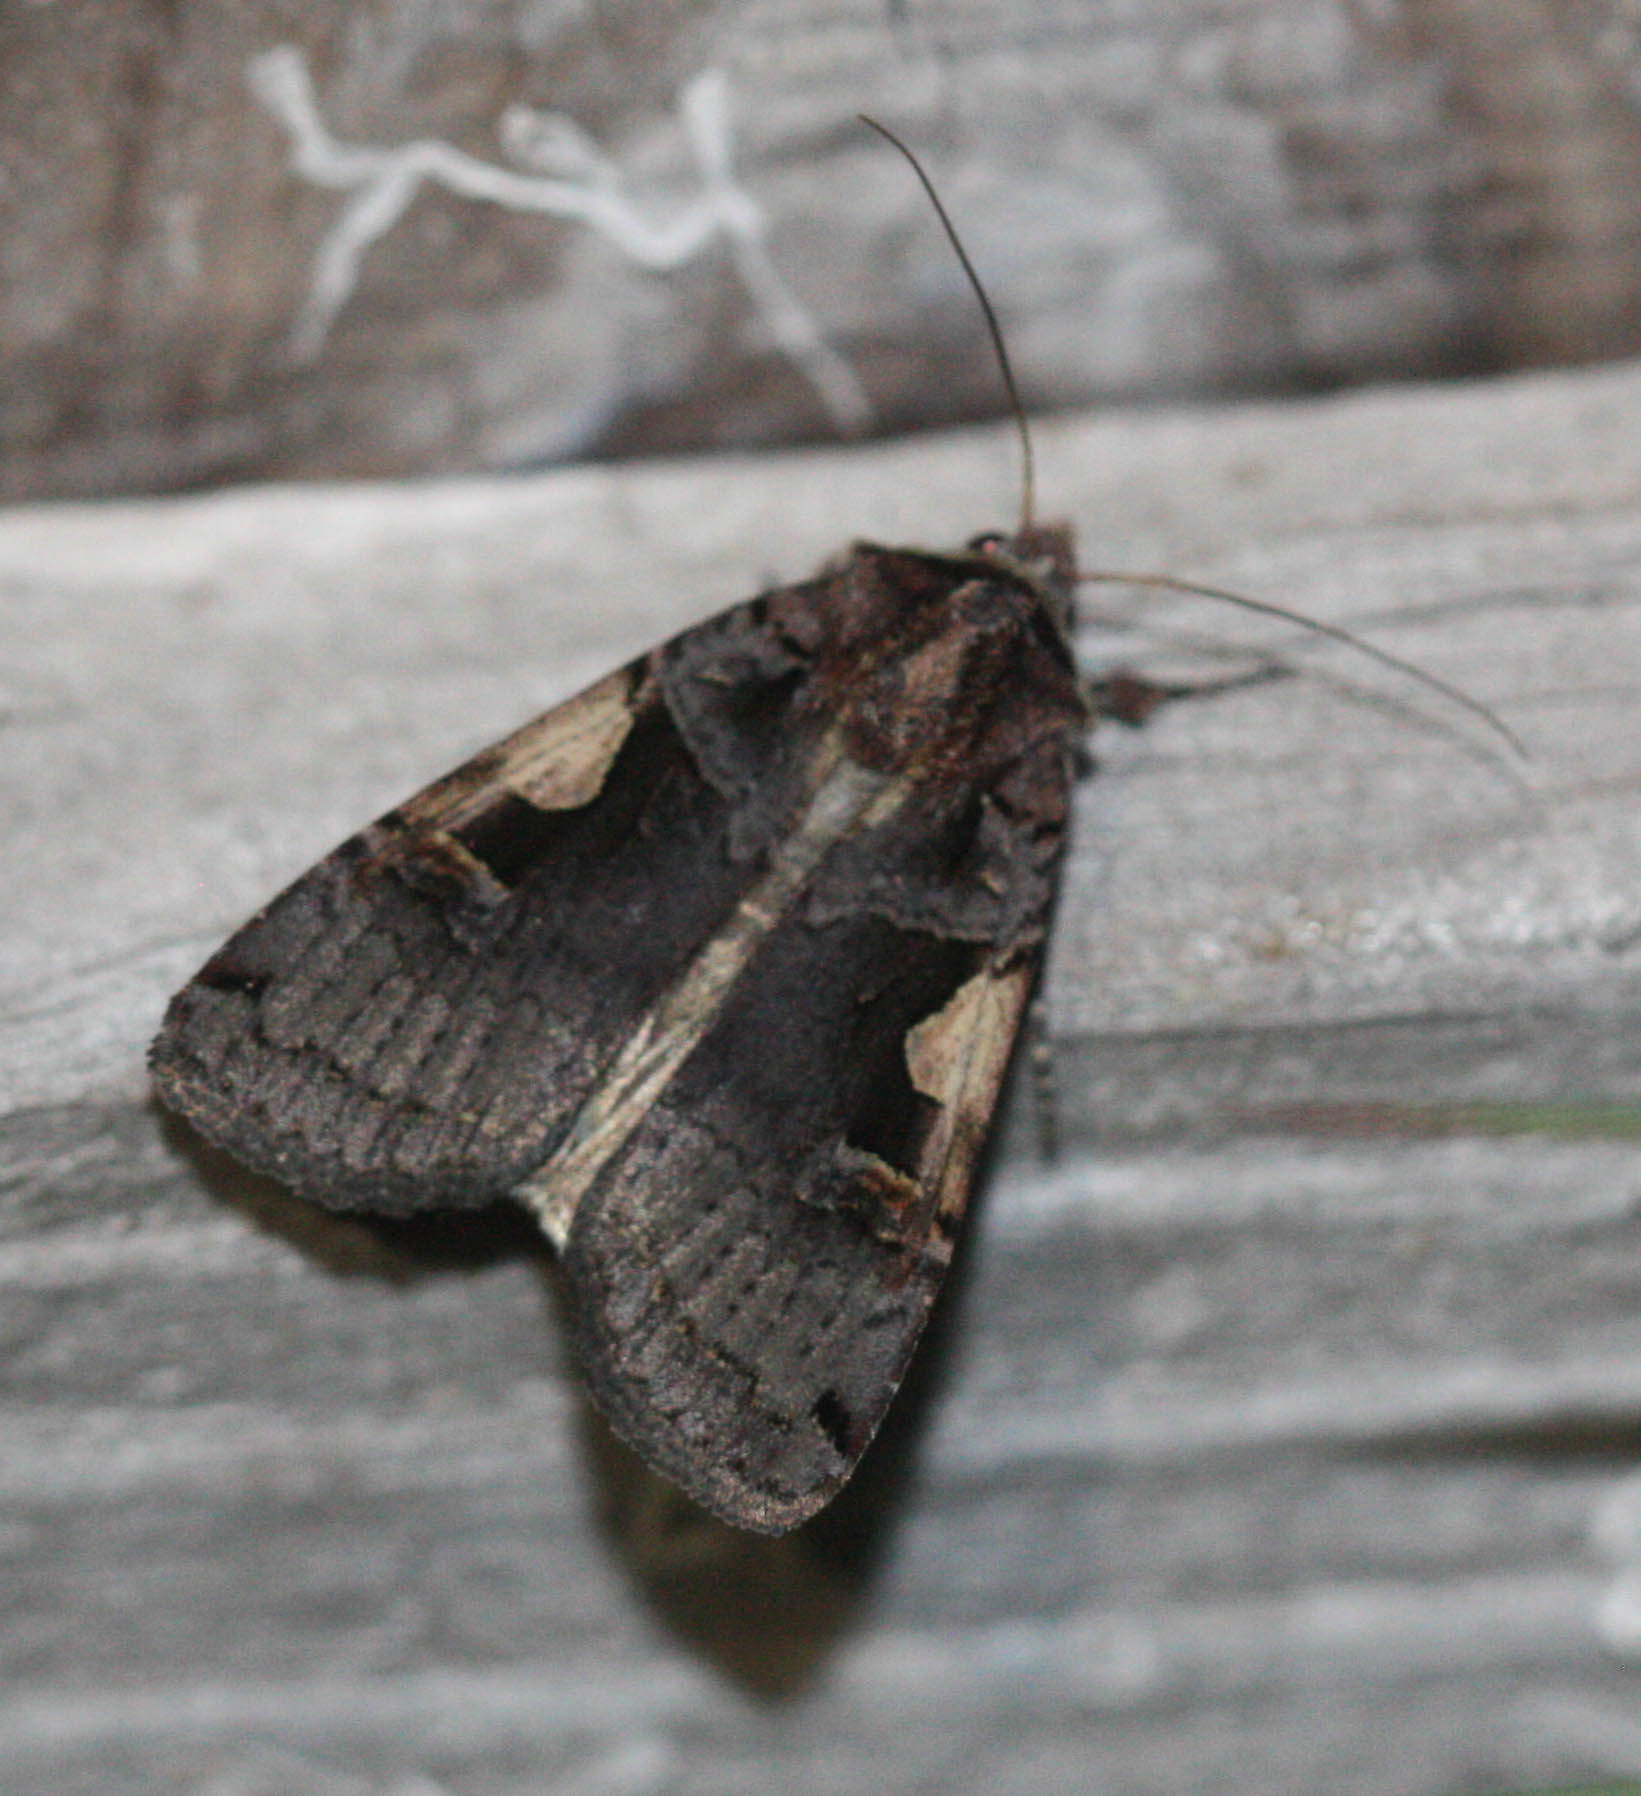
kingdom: Animalia
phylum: Arthropoda
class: Insecta
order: Lepidoptera
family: Noctuidae
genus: Xestia
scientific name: Xestia c-nigrum
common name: Setaceous hebrew character
